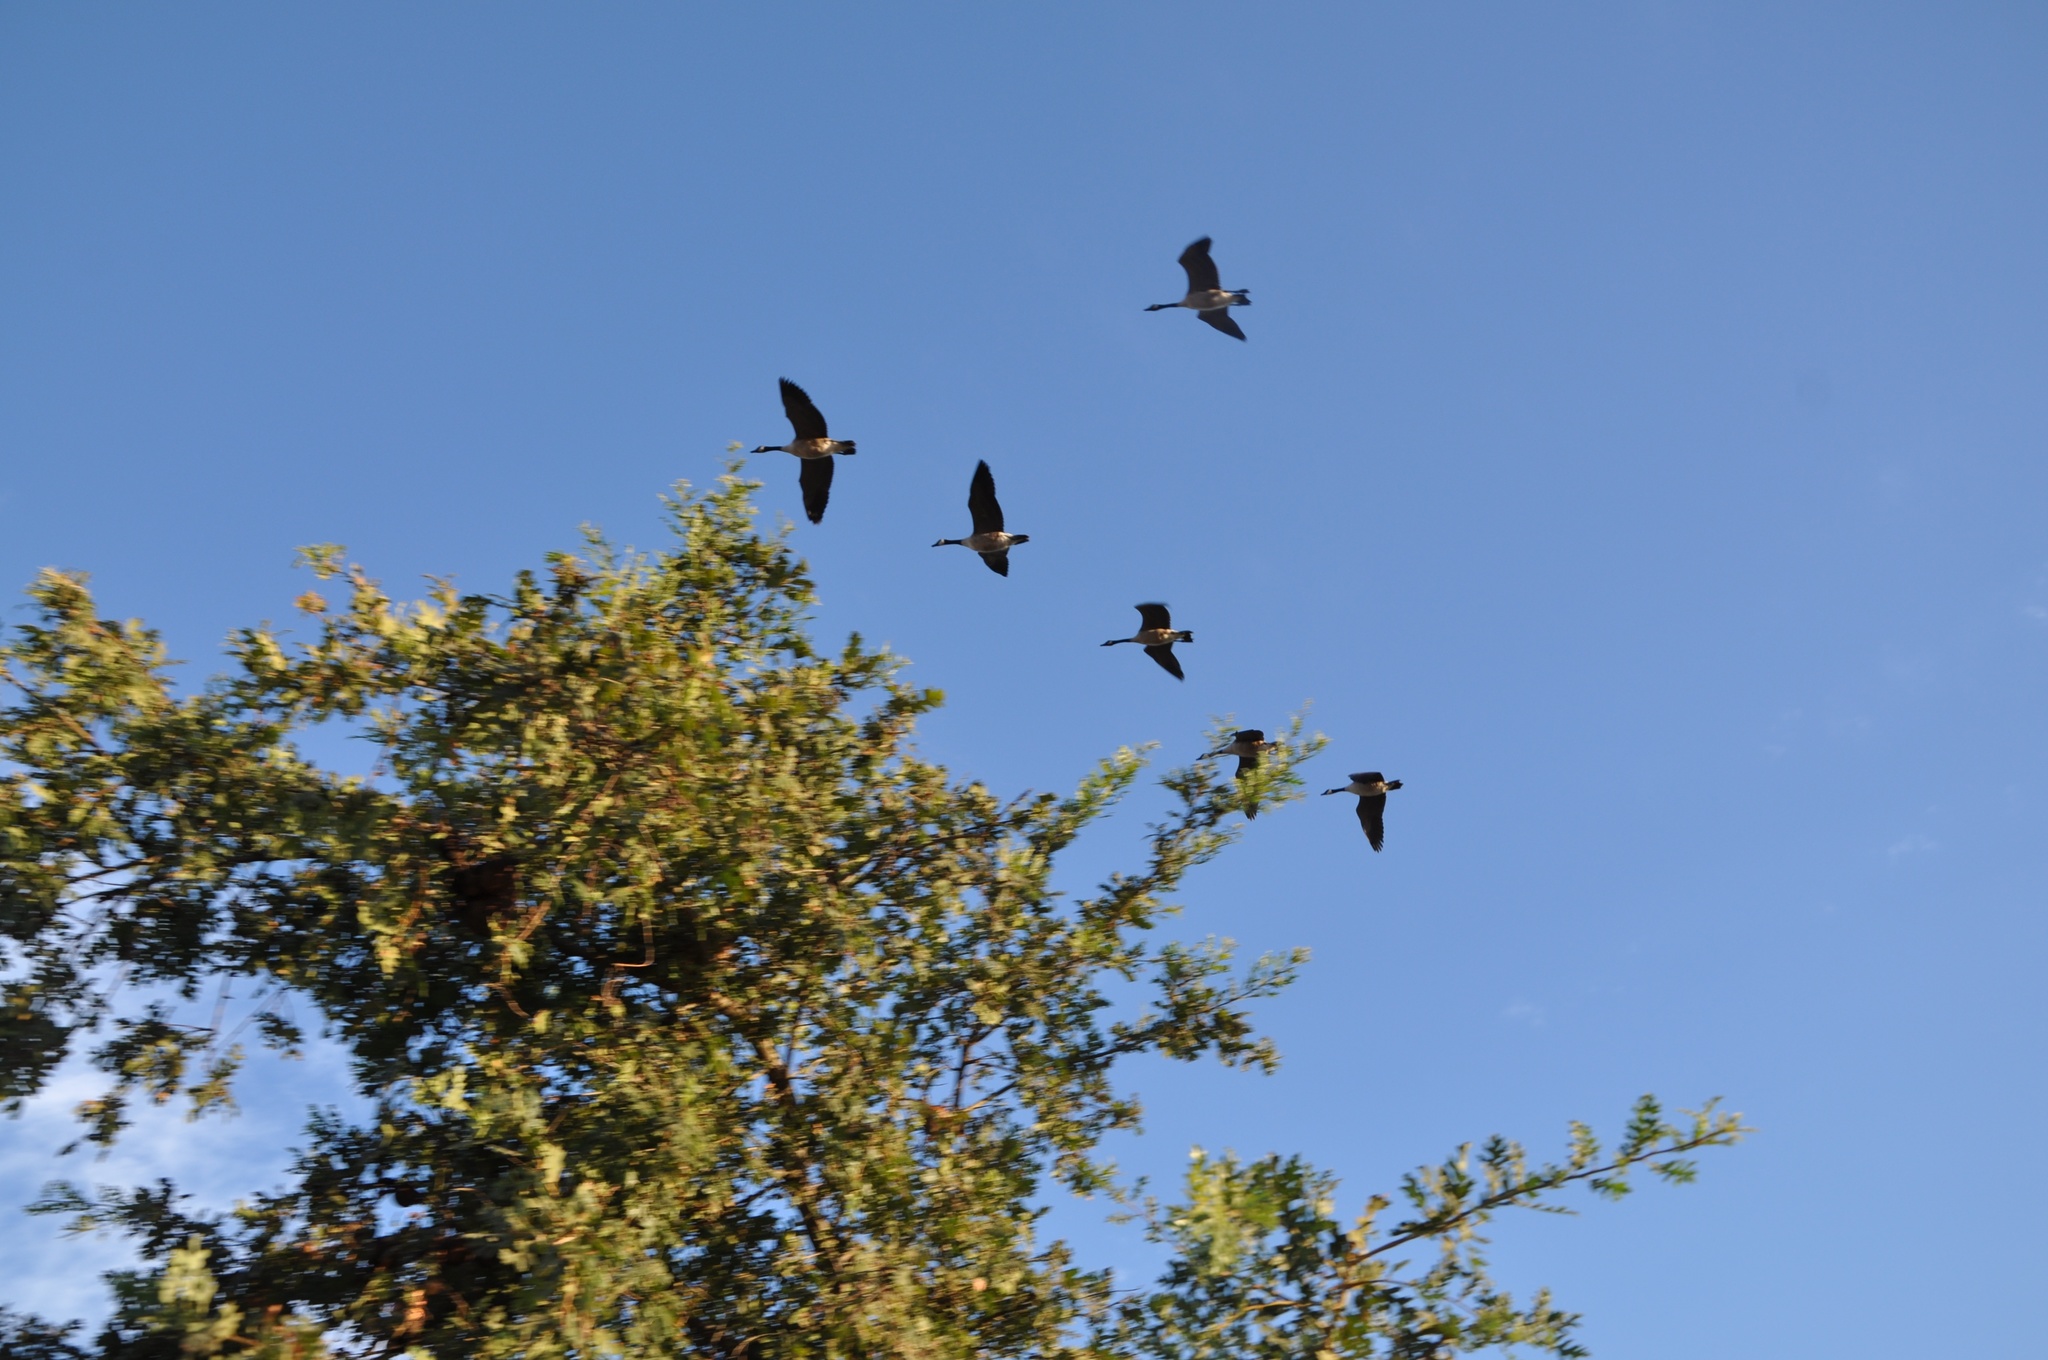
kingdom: Animalia
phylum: Chordata
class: Aves
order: Anseriformes
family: Anatidae
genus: Branta
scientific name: Branta canadensis
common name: Canada goose
